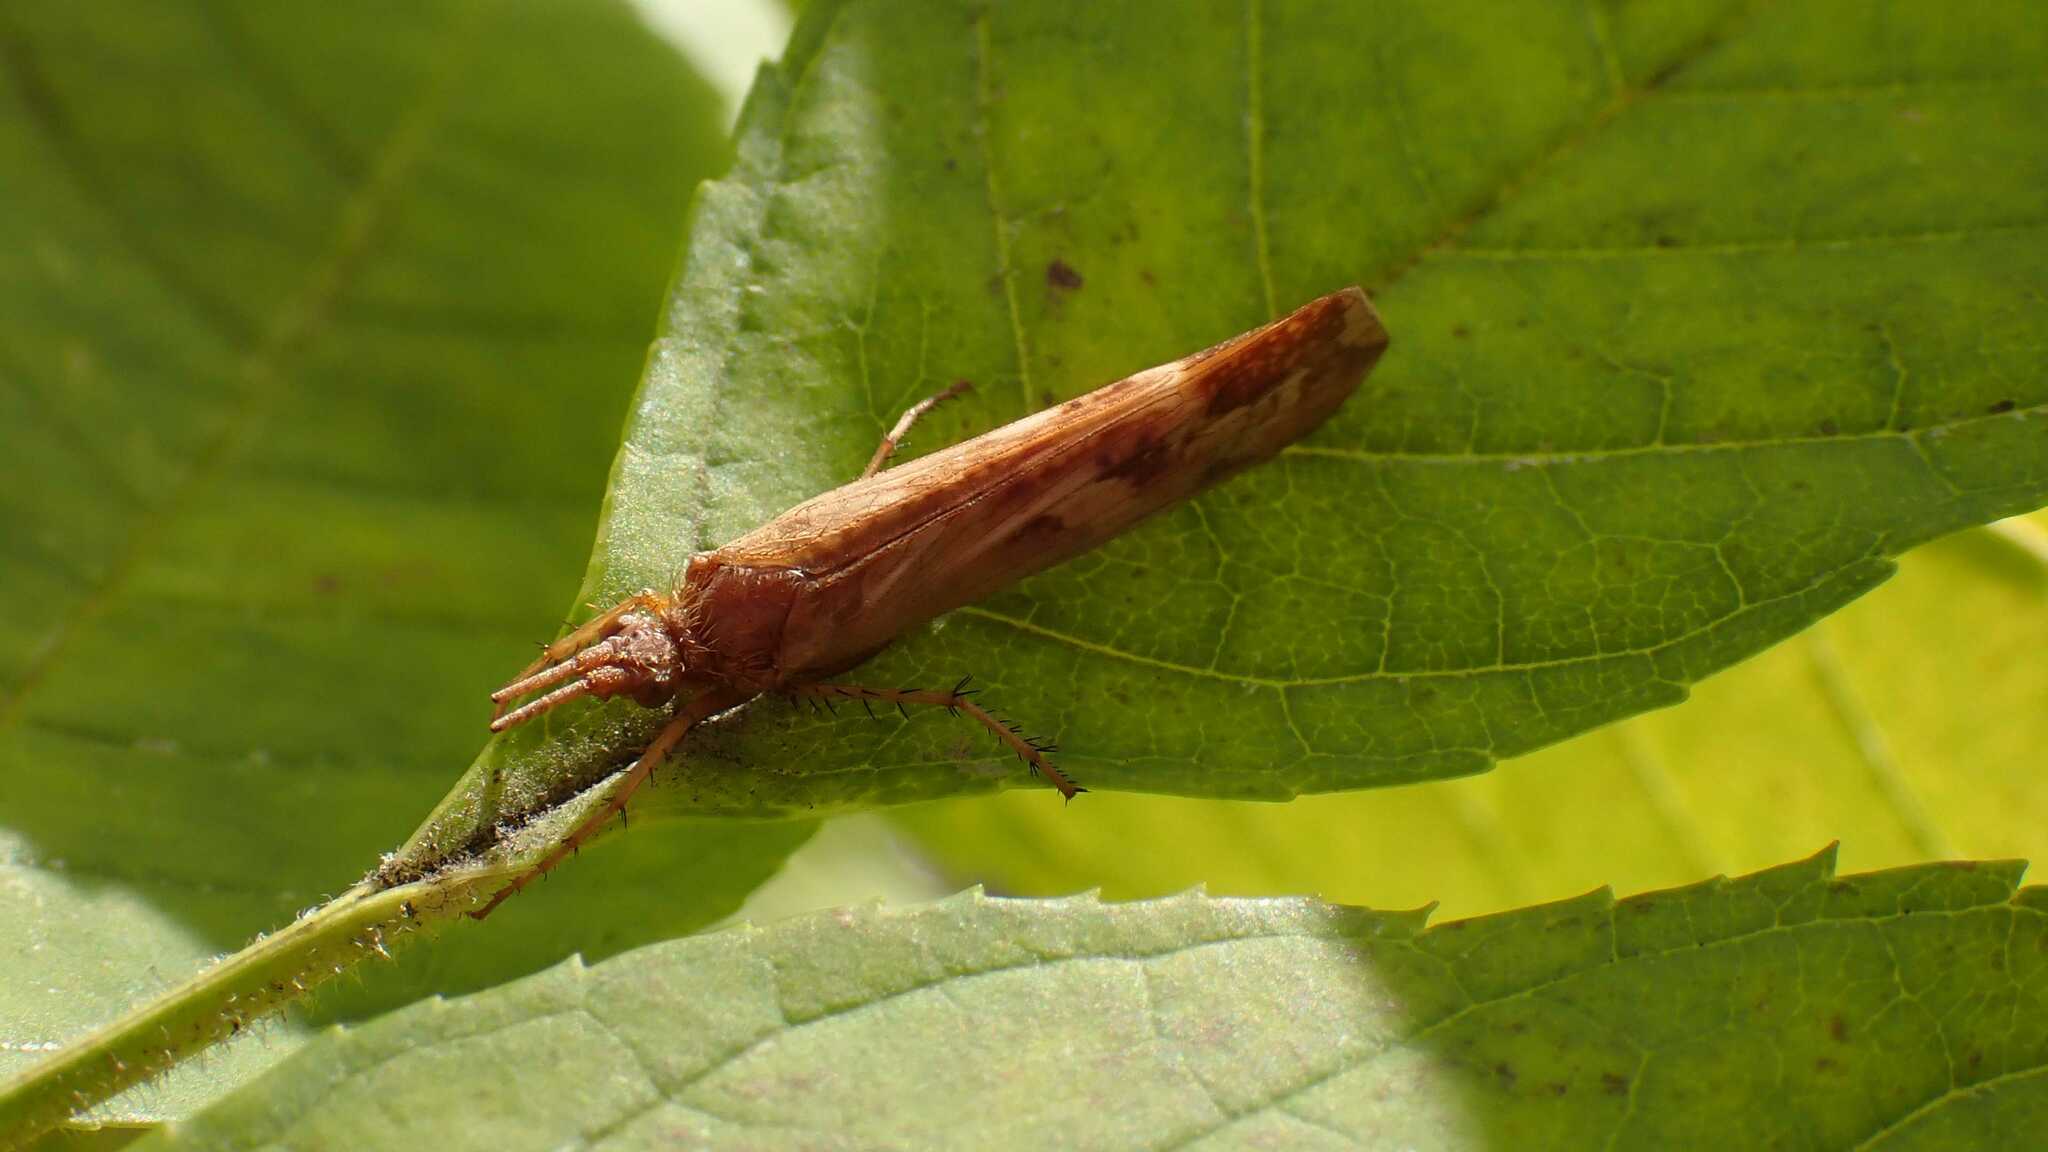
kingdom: Animalia
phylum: Arthropoda
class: Insecta
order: Trichoptera
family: Limnephilidae
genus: Limnephilus
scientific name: Limnephilus lunatus
